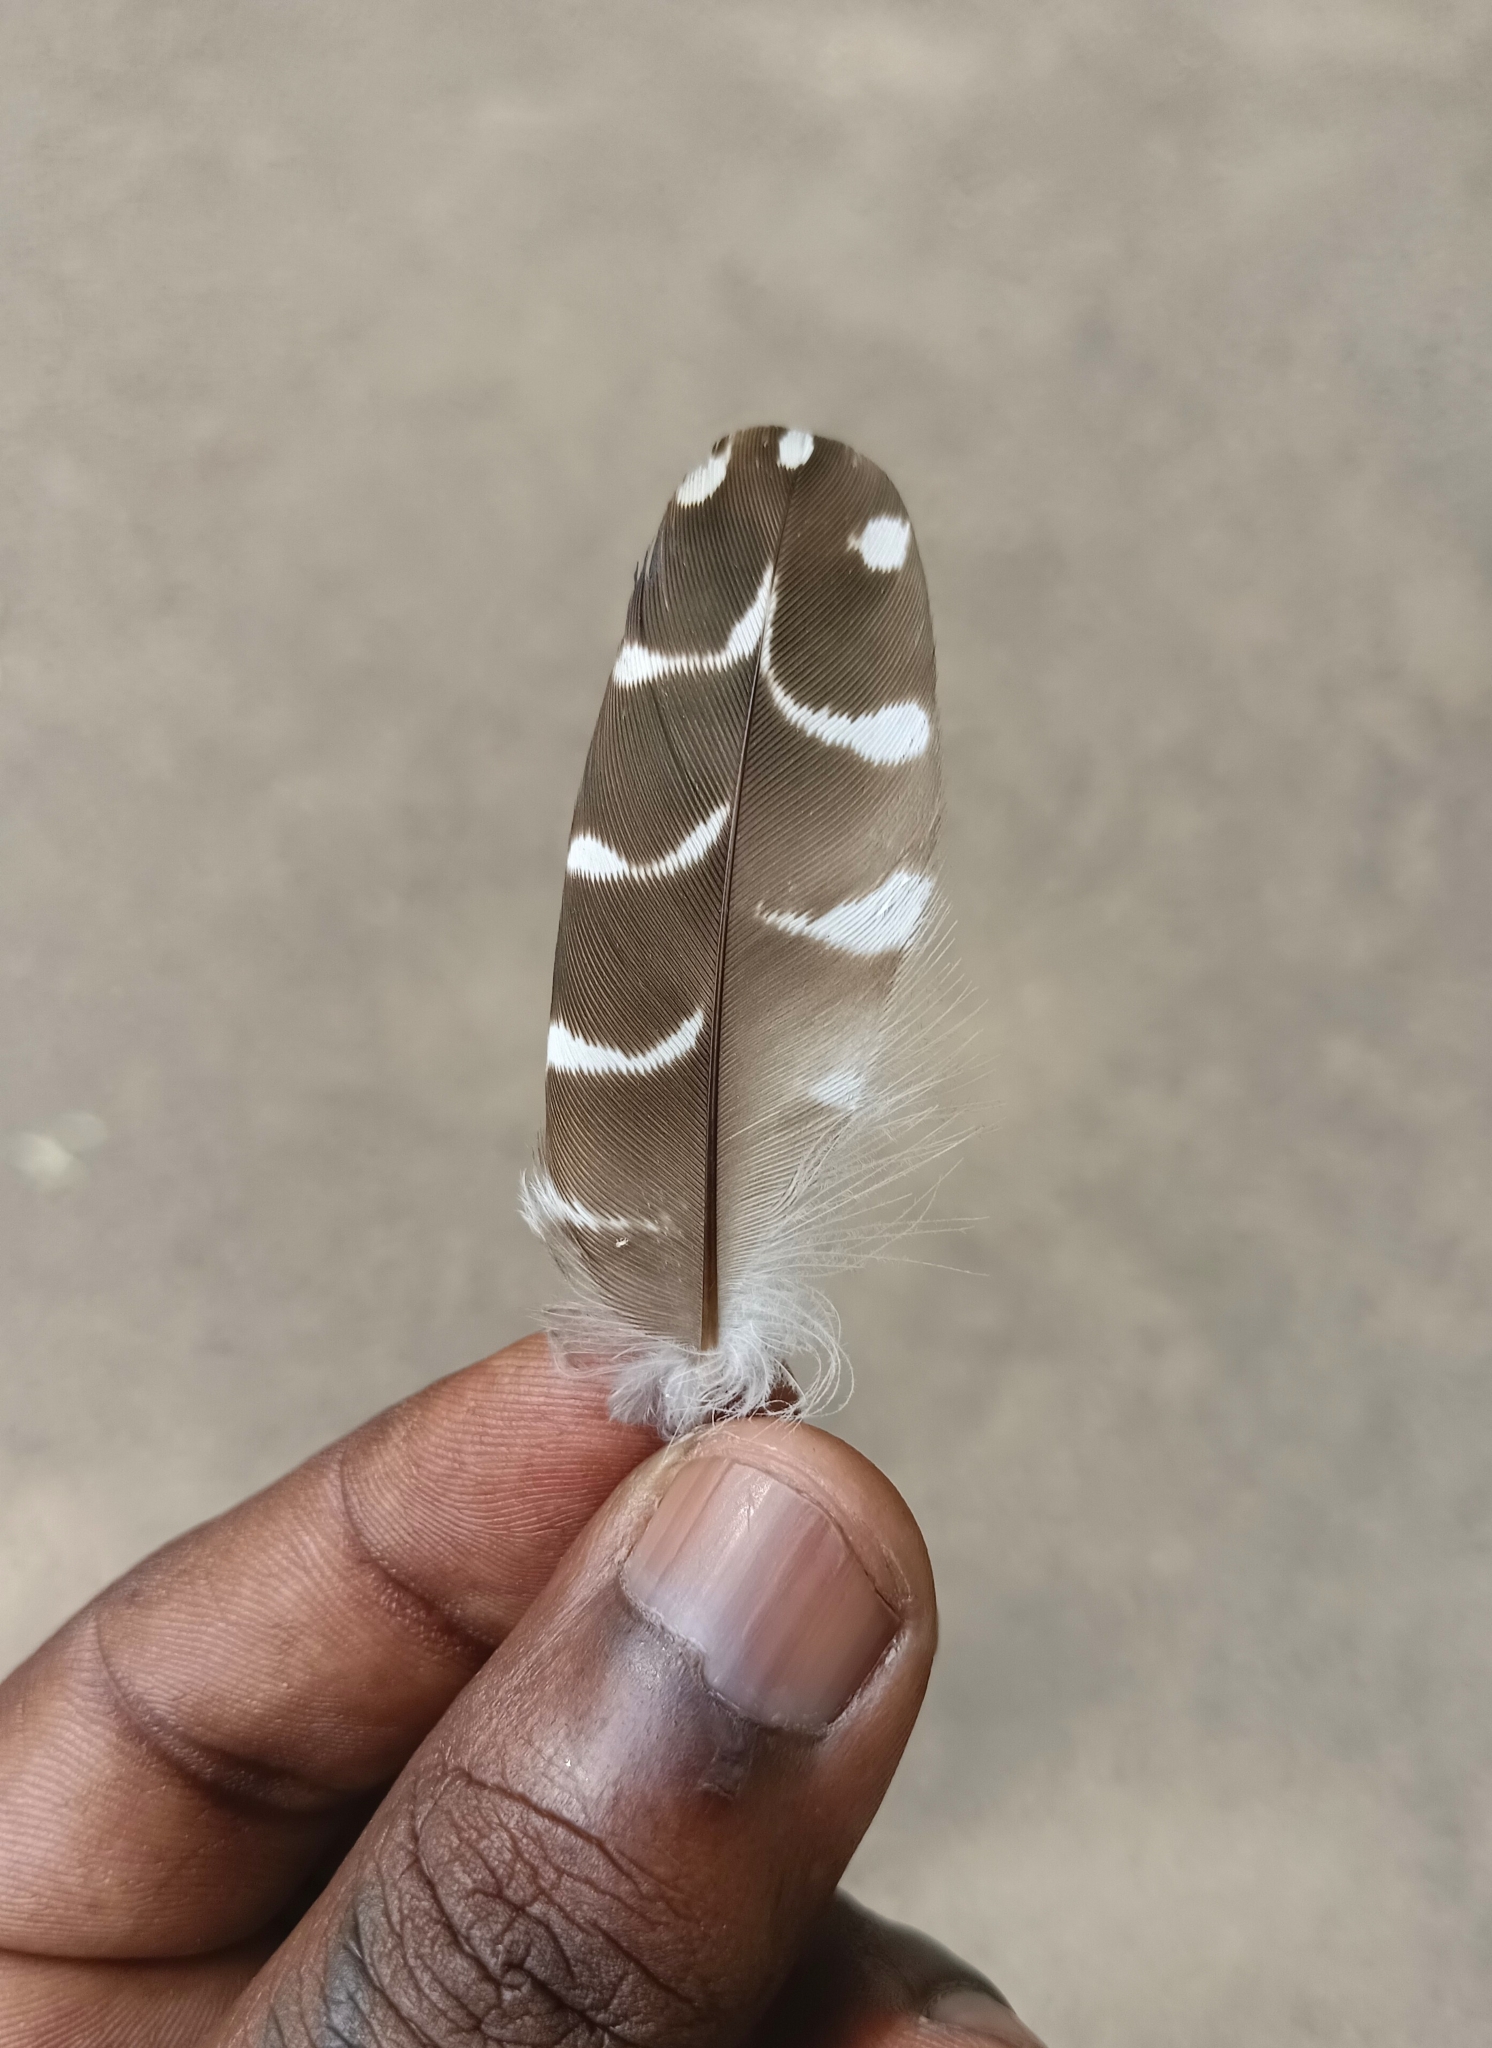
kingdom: Animalia
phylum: Chordata
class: Aves
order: Cuculiformes
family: Cuculidae
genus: Eudynamys
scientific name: Eudynamys scolopaceus
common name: Asian koel
